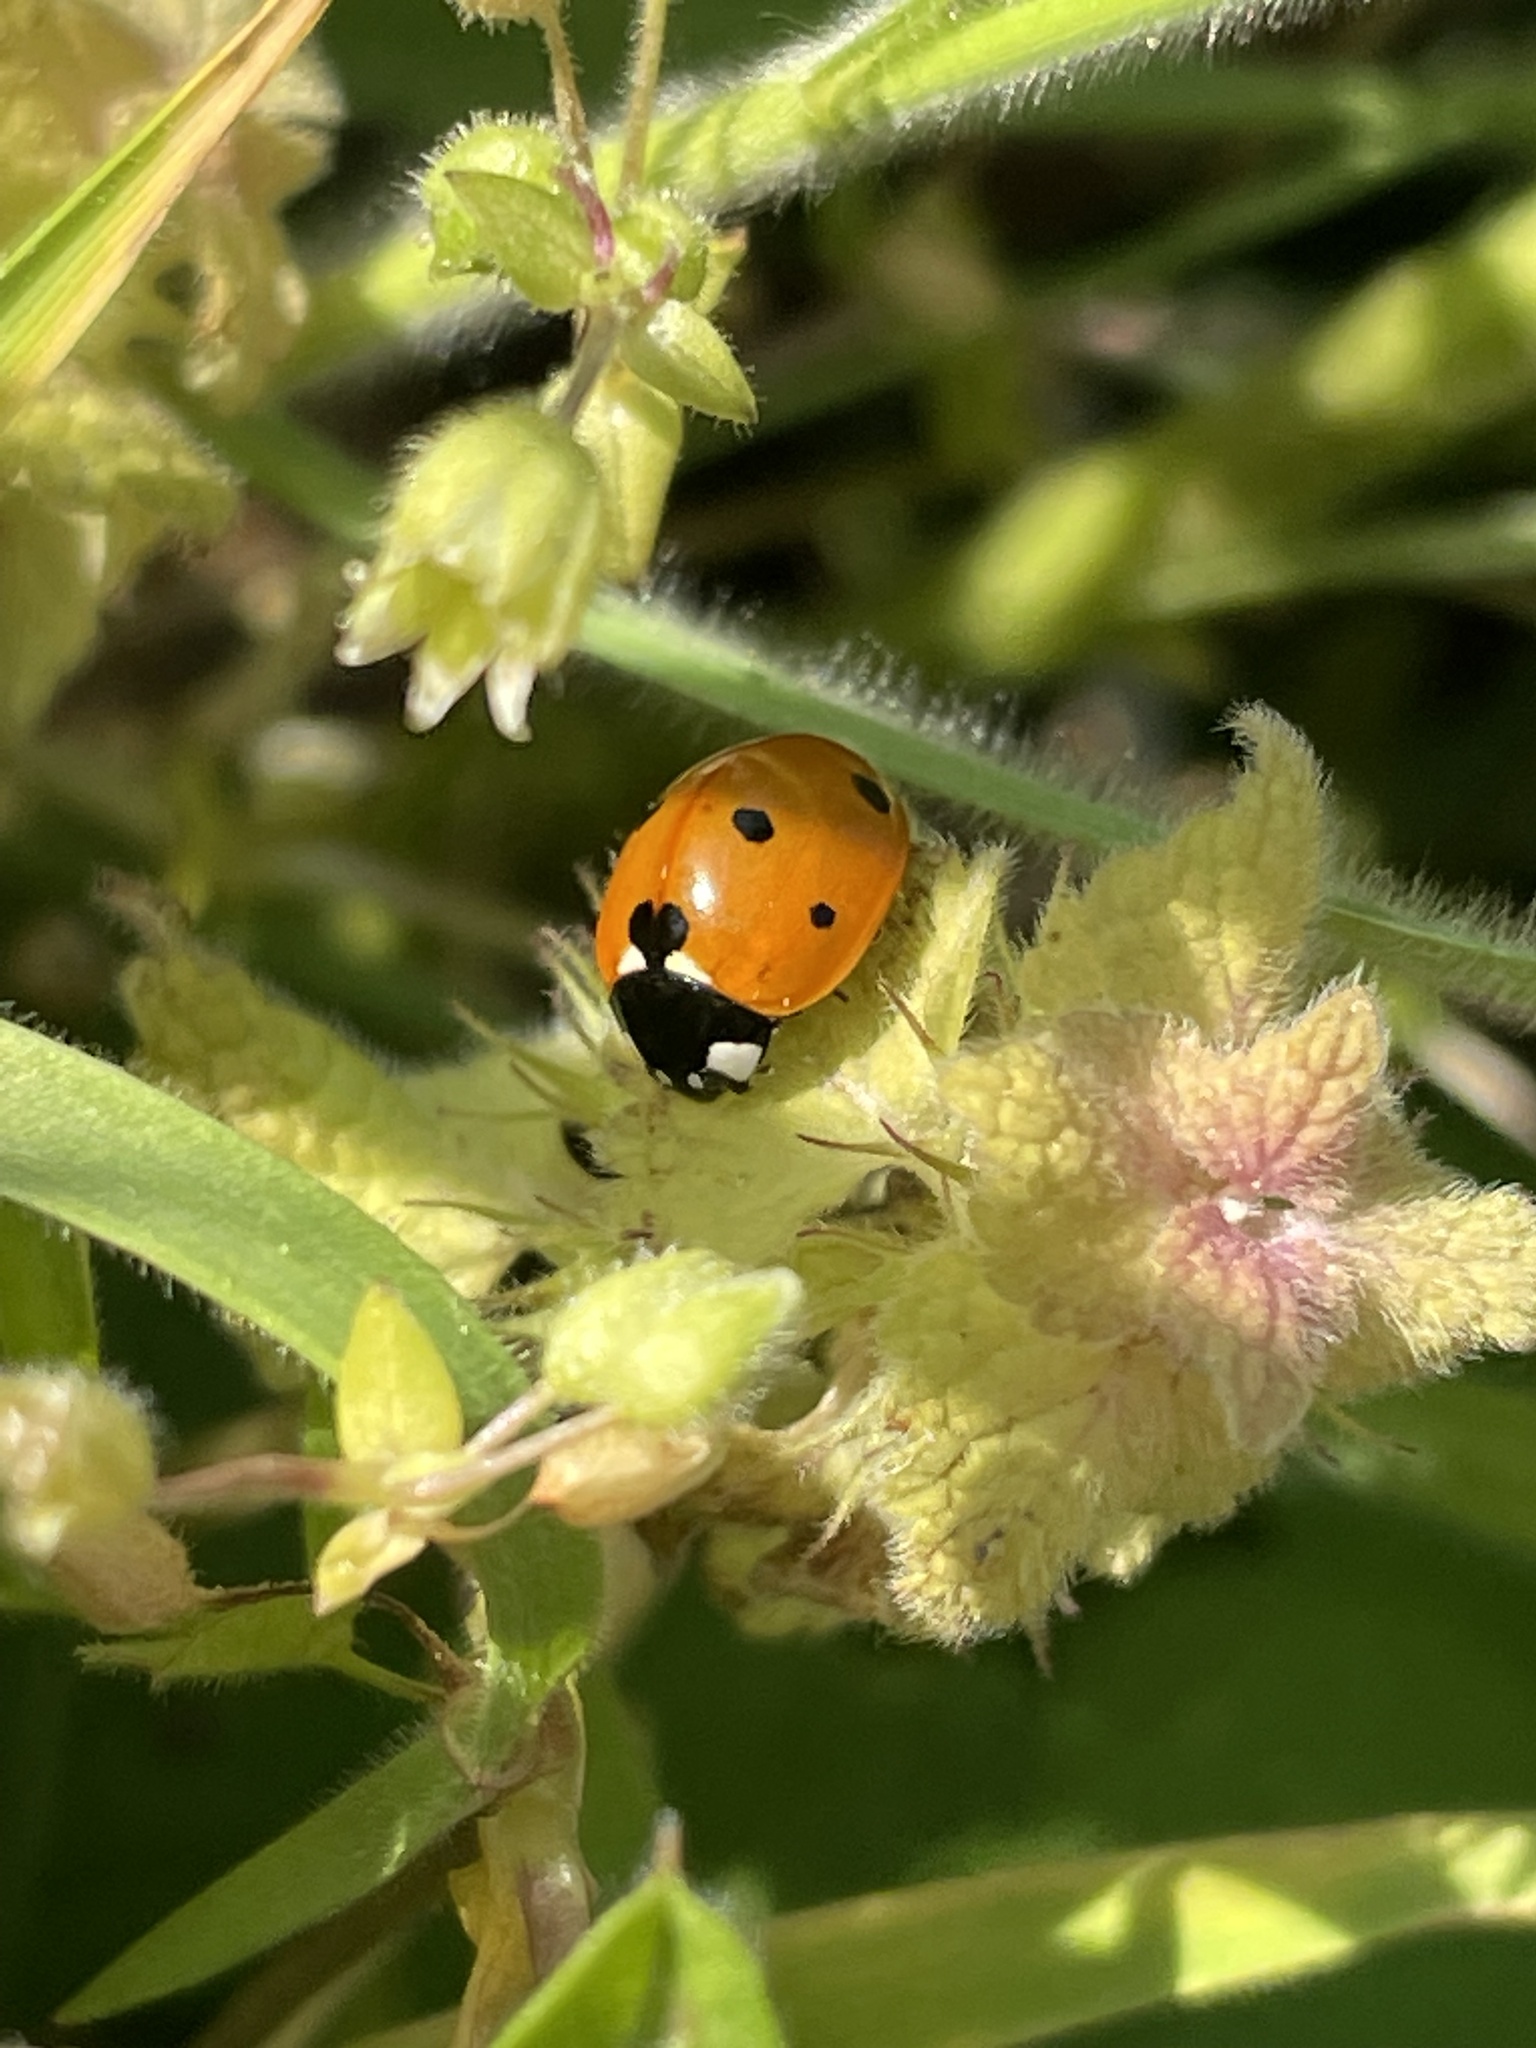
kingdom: Animalia
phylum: Arthropoda
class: Insecta
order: Coleoptera
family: Coccinellidae
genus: Coccinella
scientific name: Coccinella septempunctata
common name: Sevenspotted lady beetle
